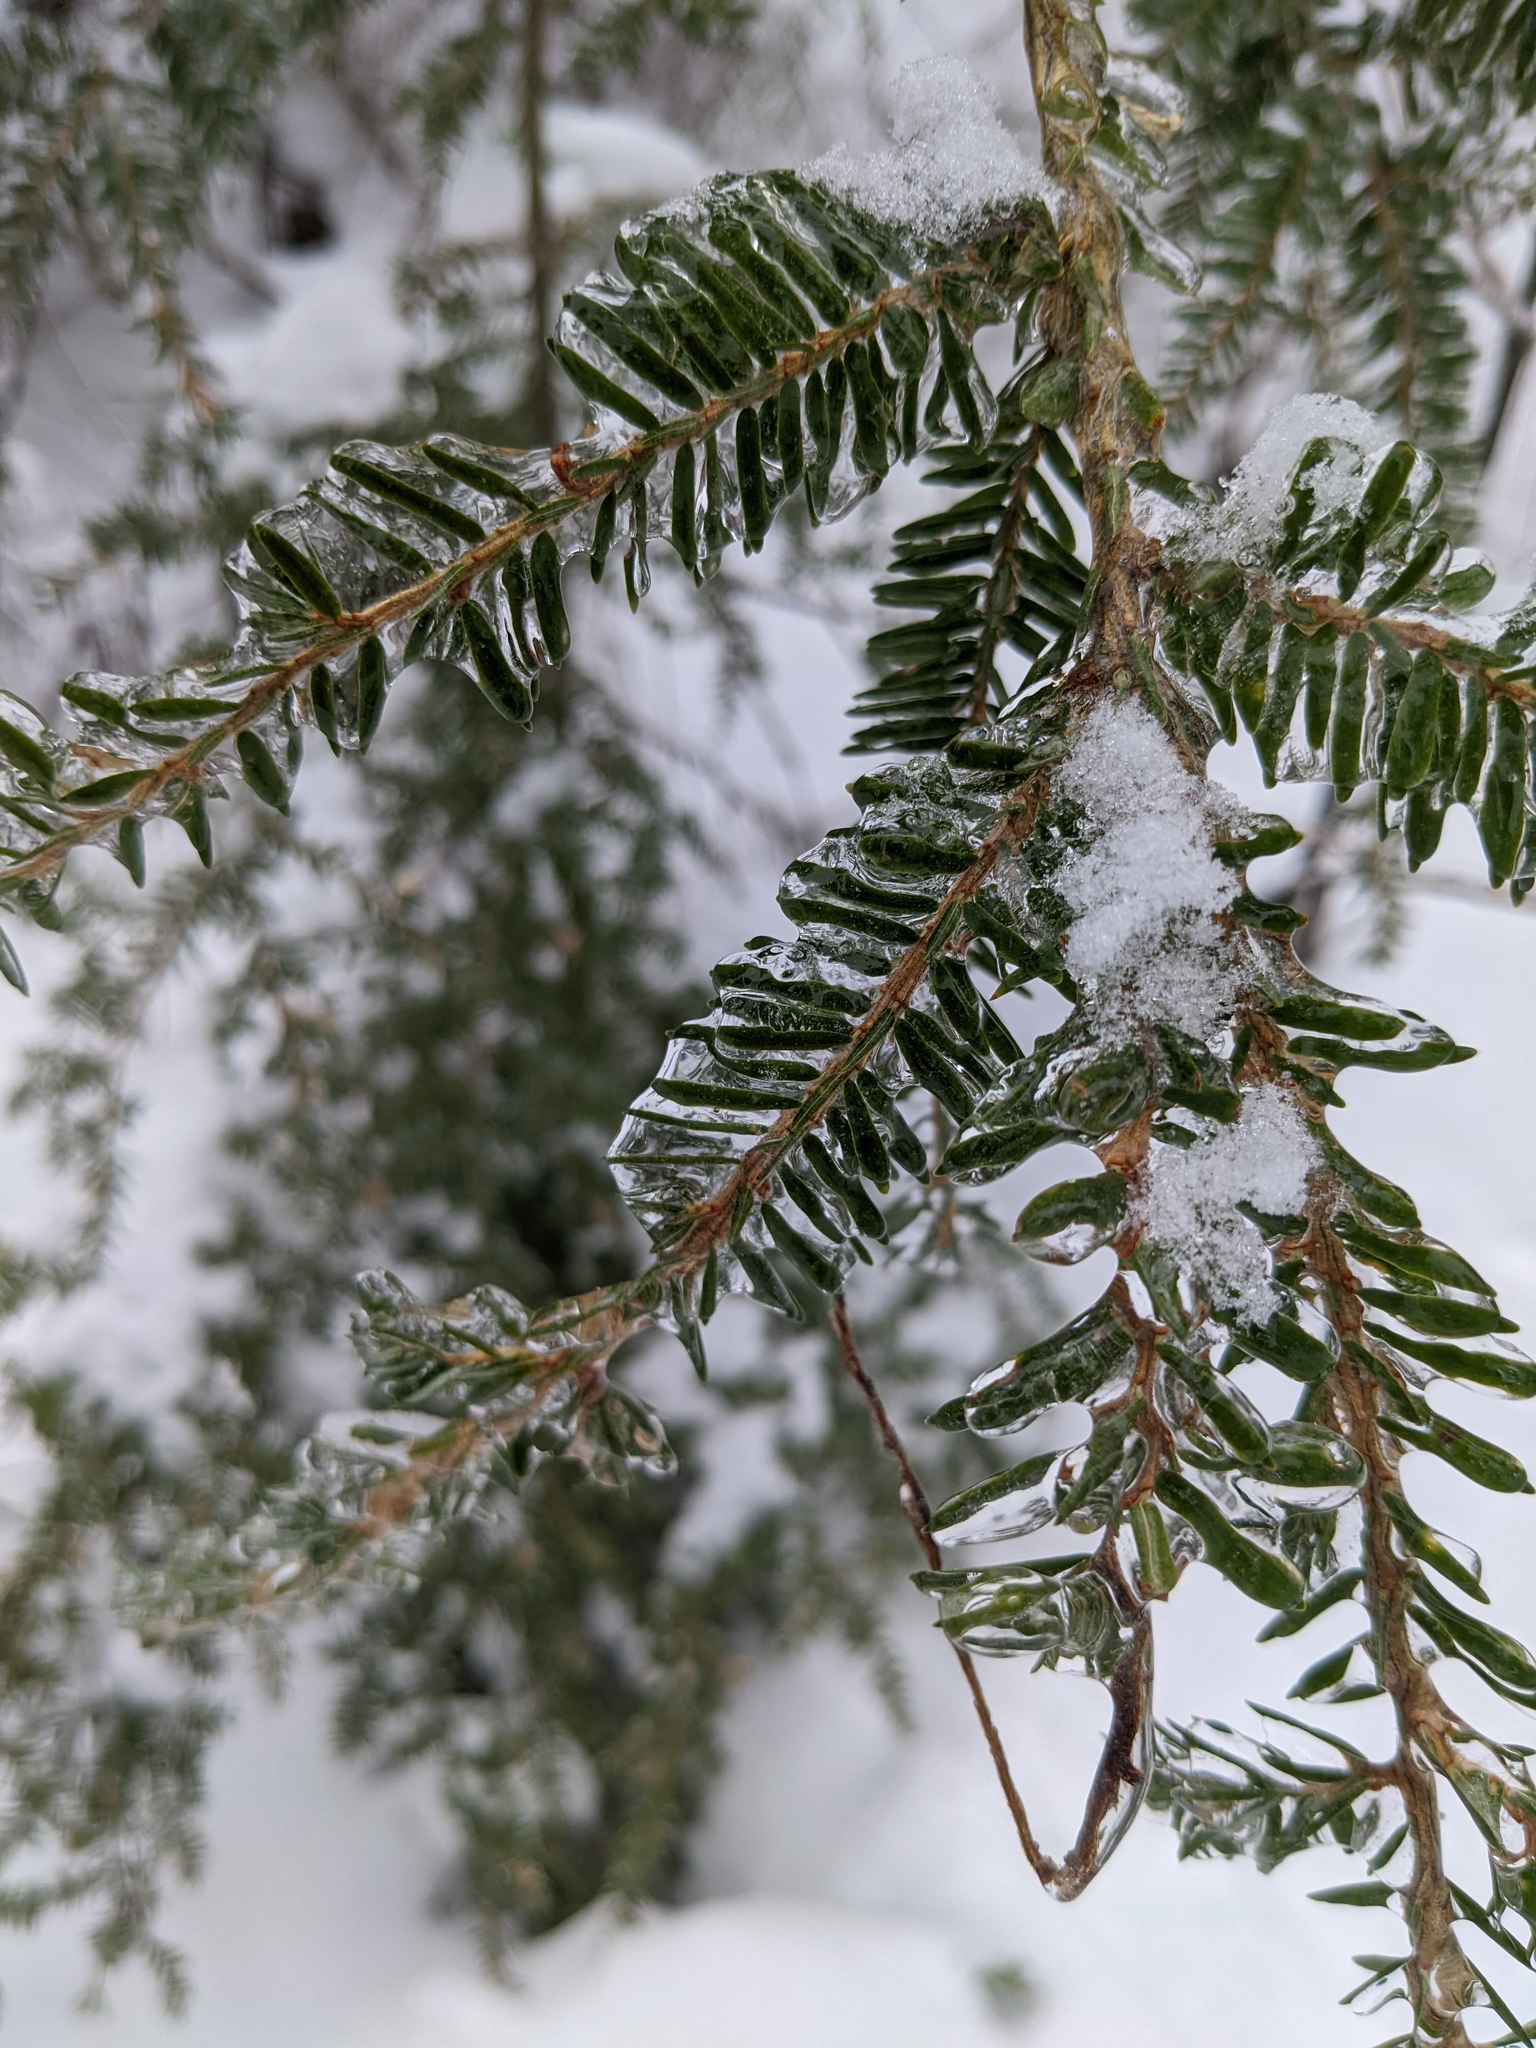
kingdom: Plantae
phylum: Tracheophyta
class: Pinopsida
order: Pinales
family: Pinaceae
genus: Tsuga
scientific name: Tsuga canadensis
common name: Eastern hemlock
